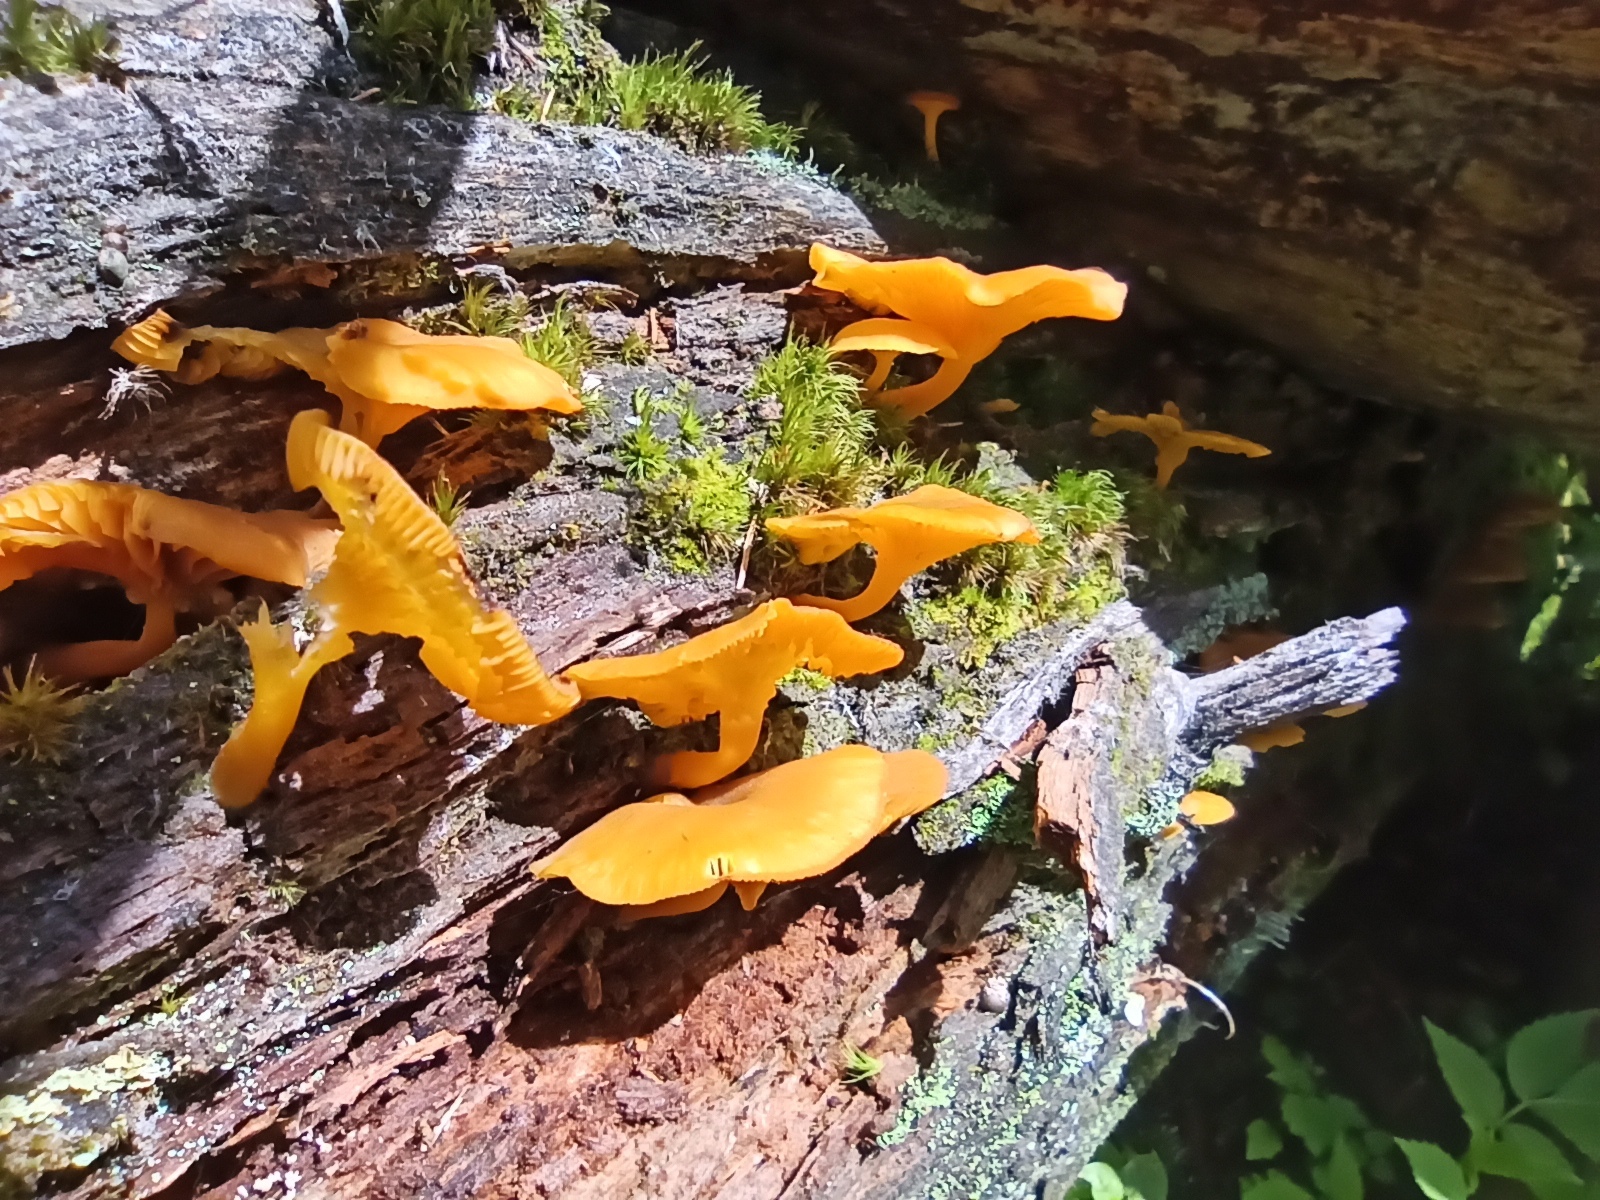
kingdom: Fungi
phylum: Basidiomycota
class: Agaricomycetes
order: Agaricales
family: Hygrophoraceae
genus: Chrysomphalina
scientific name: Chrysomphalina chrysophylla
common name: Golden navel
